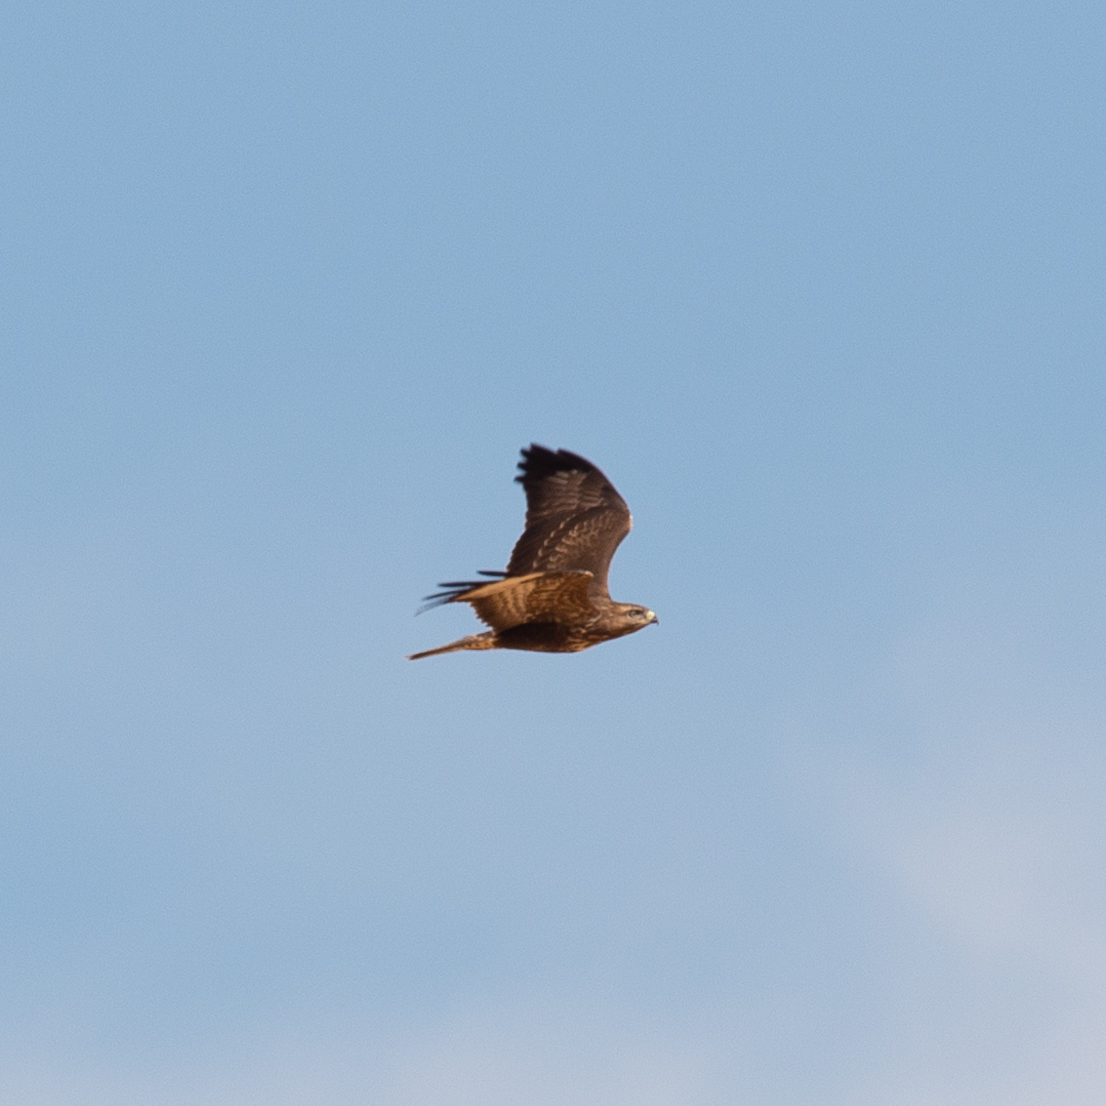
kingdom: Animalia
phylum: Chordata
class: Aves
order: Accipitriformes
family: Accipitridae
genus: Buteo
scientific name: Buteo buteo
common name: Common buzzard
